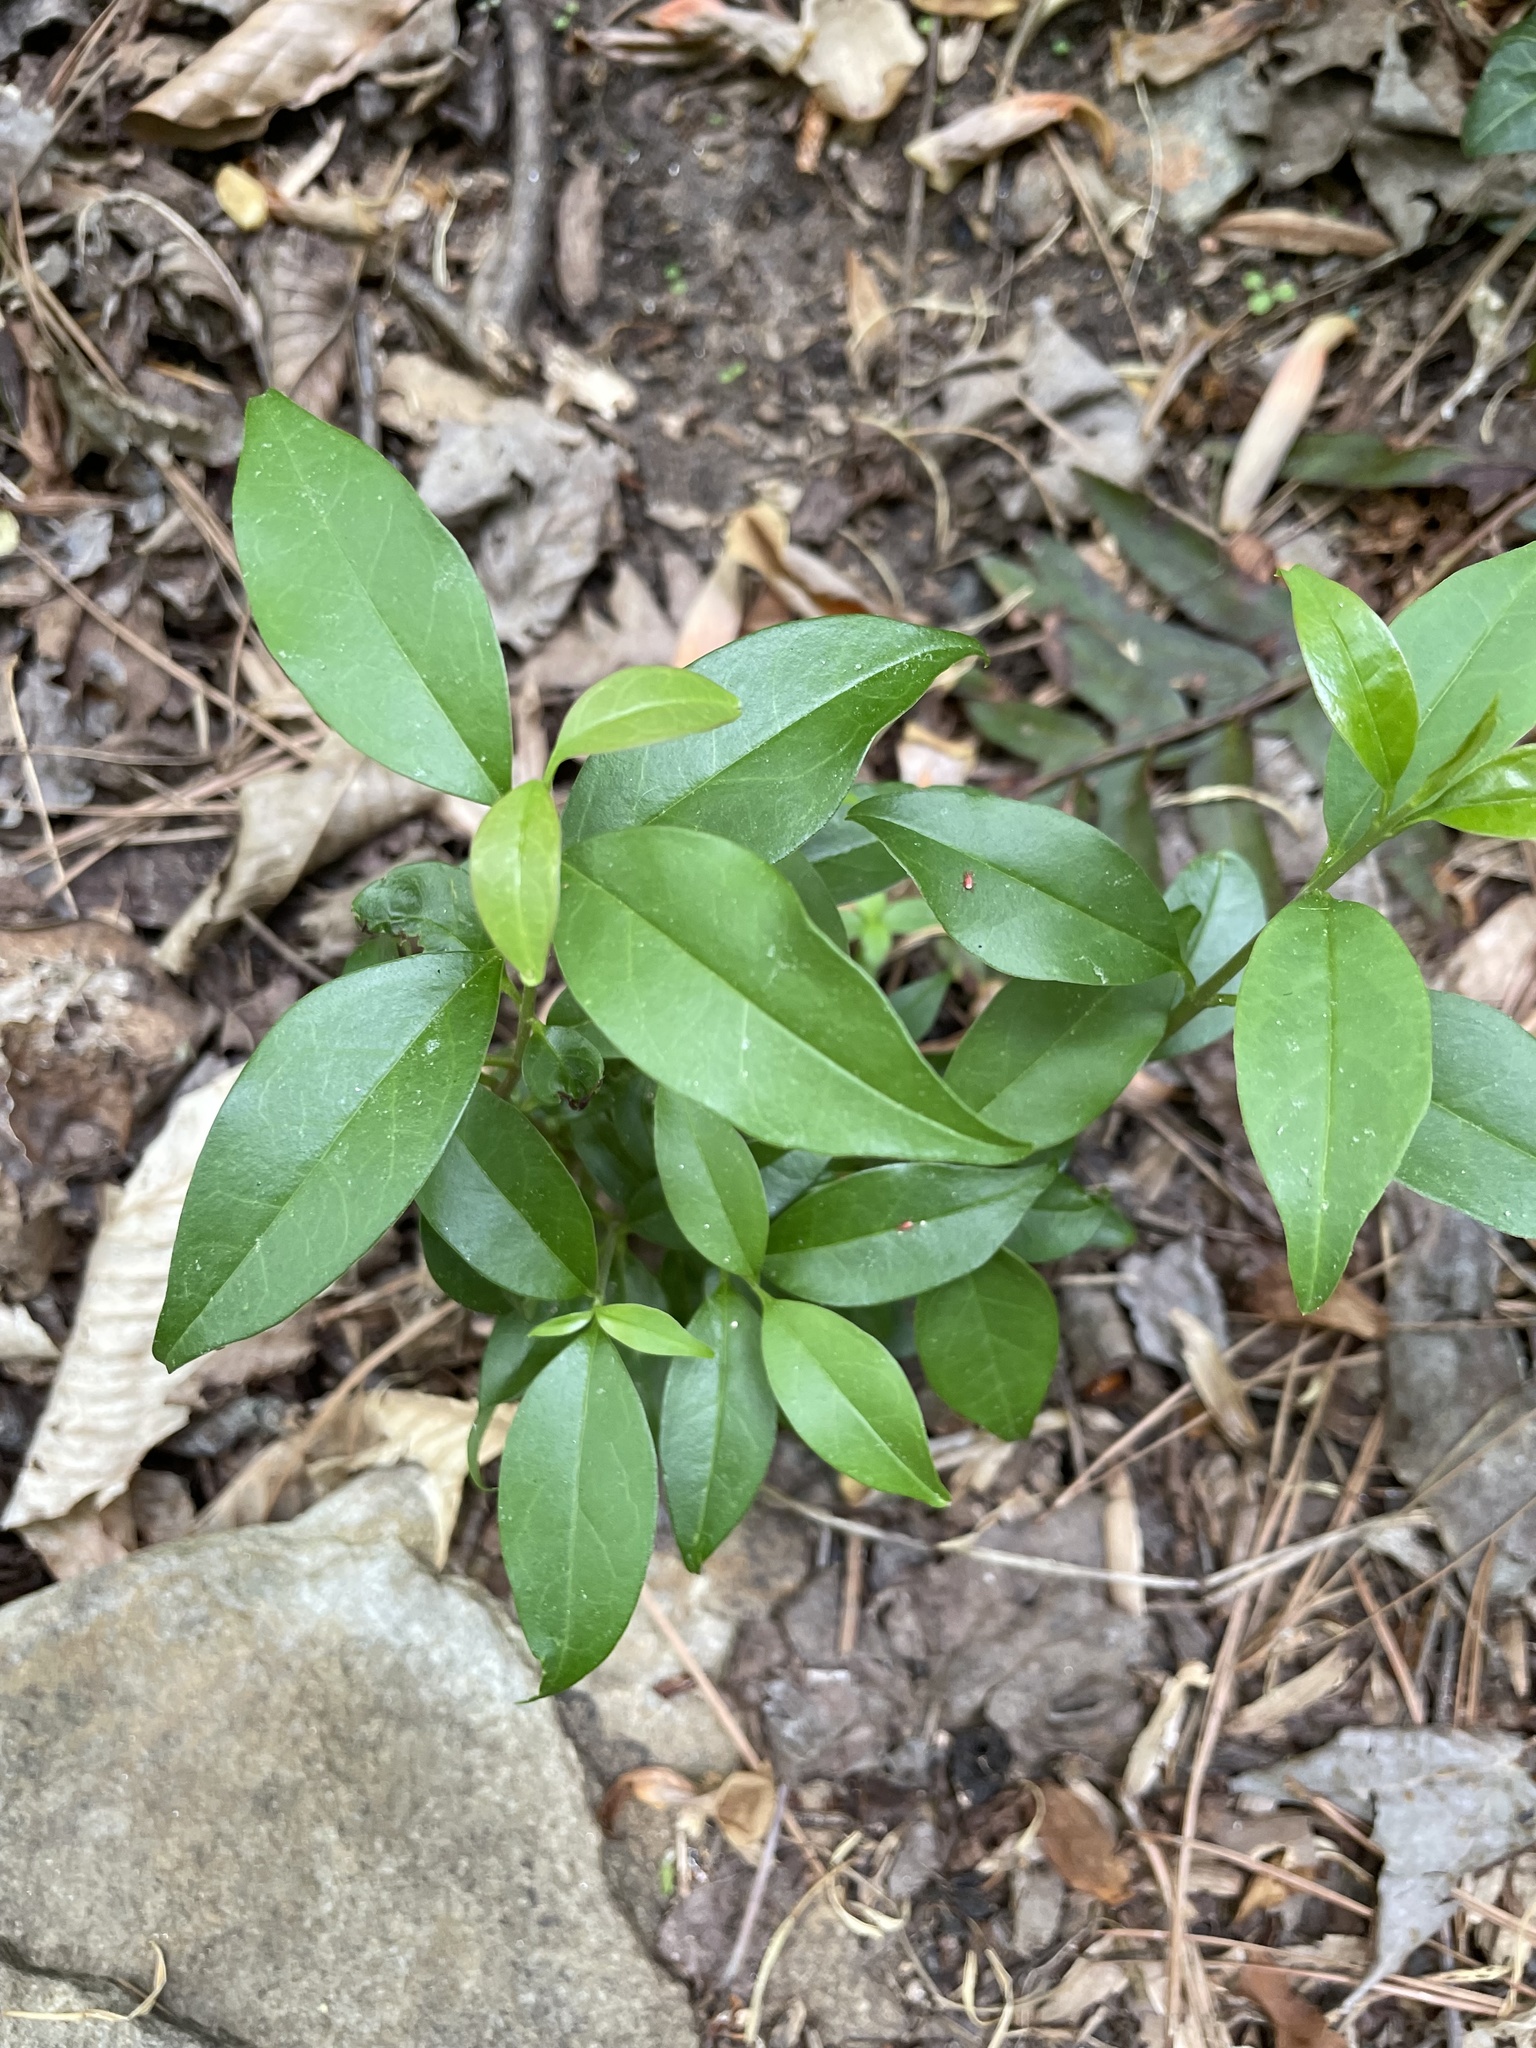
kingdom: Plantae
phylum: Tracheophyta
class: Magnoliopsida
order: Lamiales
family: Oleaceae
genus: Ligustrum
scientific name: Ligustrum lucidum
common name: Glossy privet
